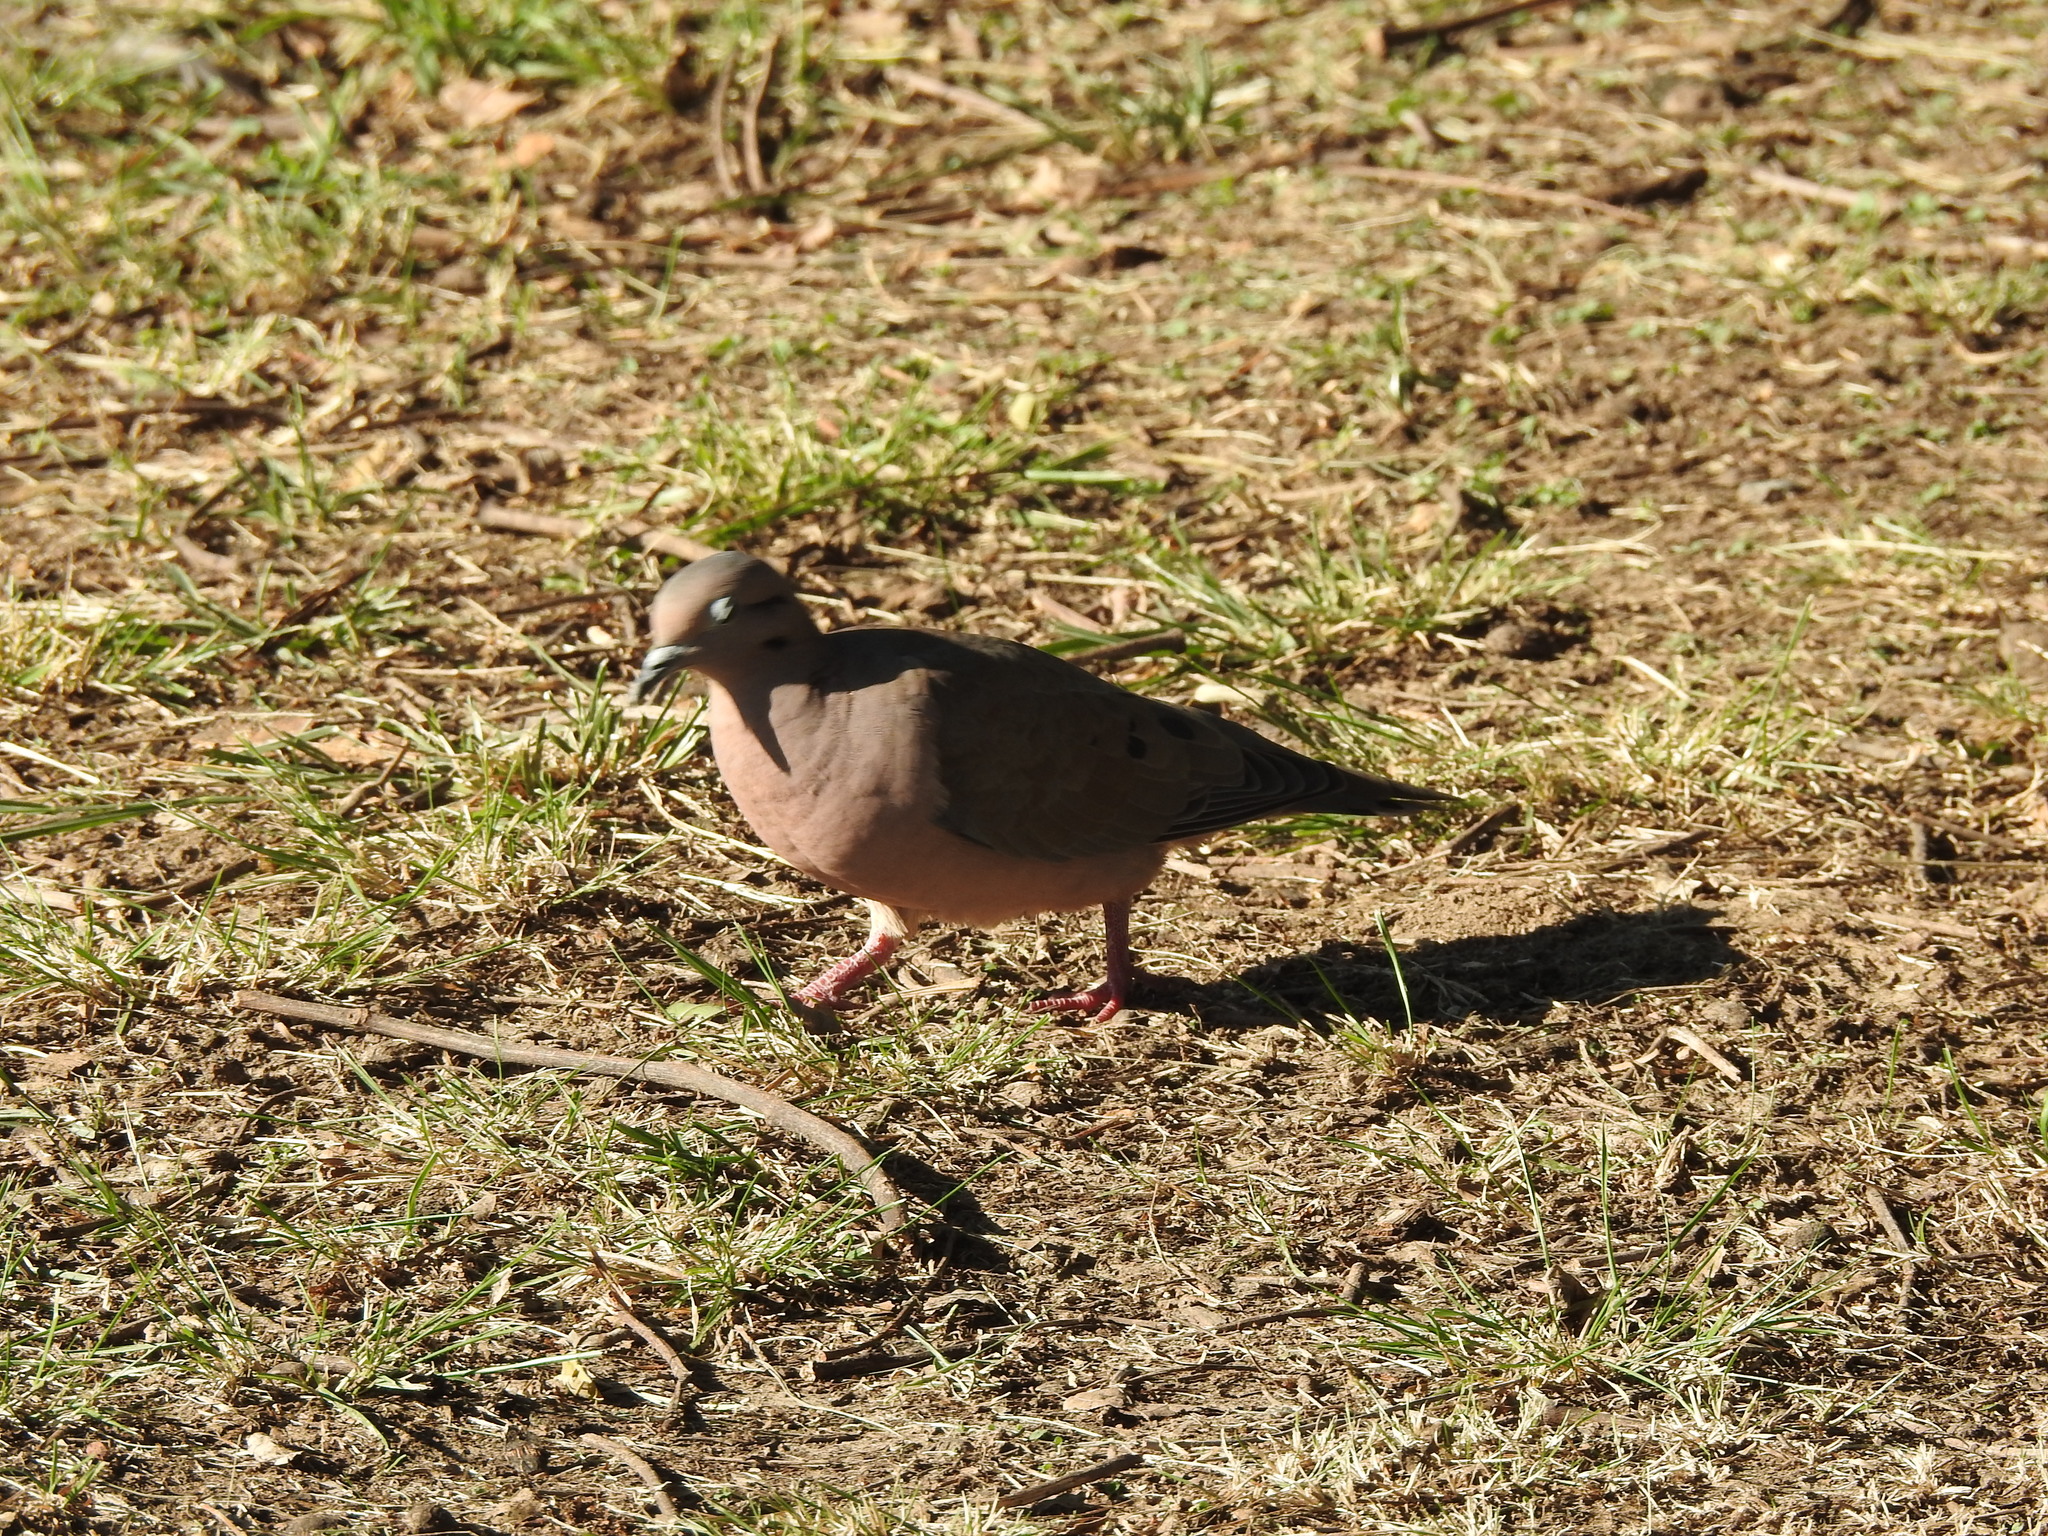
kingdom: Animalia
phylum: Chordata
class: Aves
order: Columbiformes
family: Columbidae
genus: Zenaida
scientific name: Zenaida auriculata
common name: Eared dove
